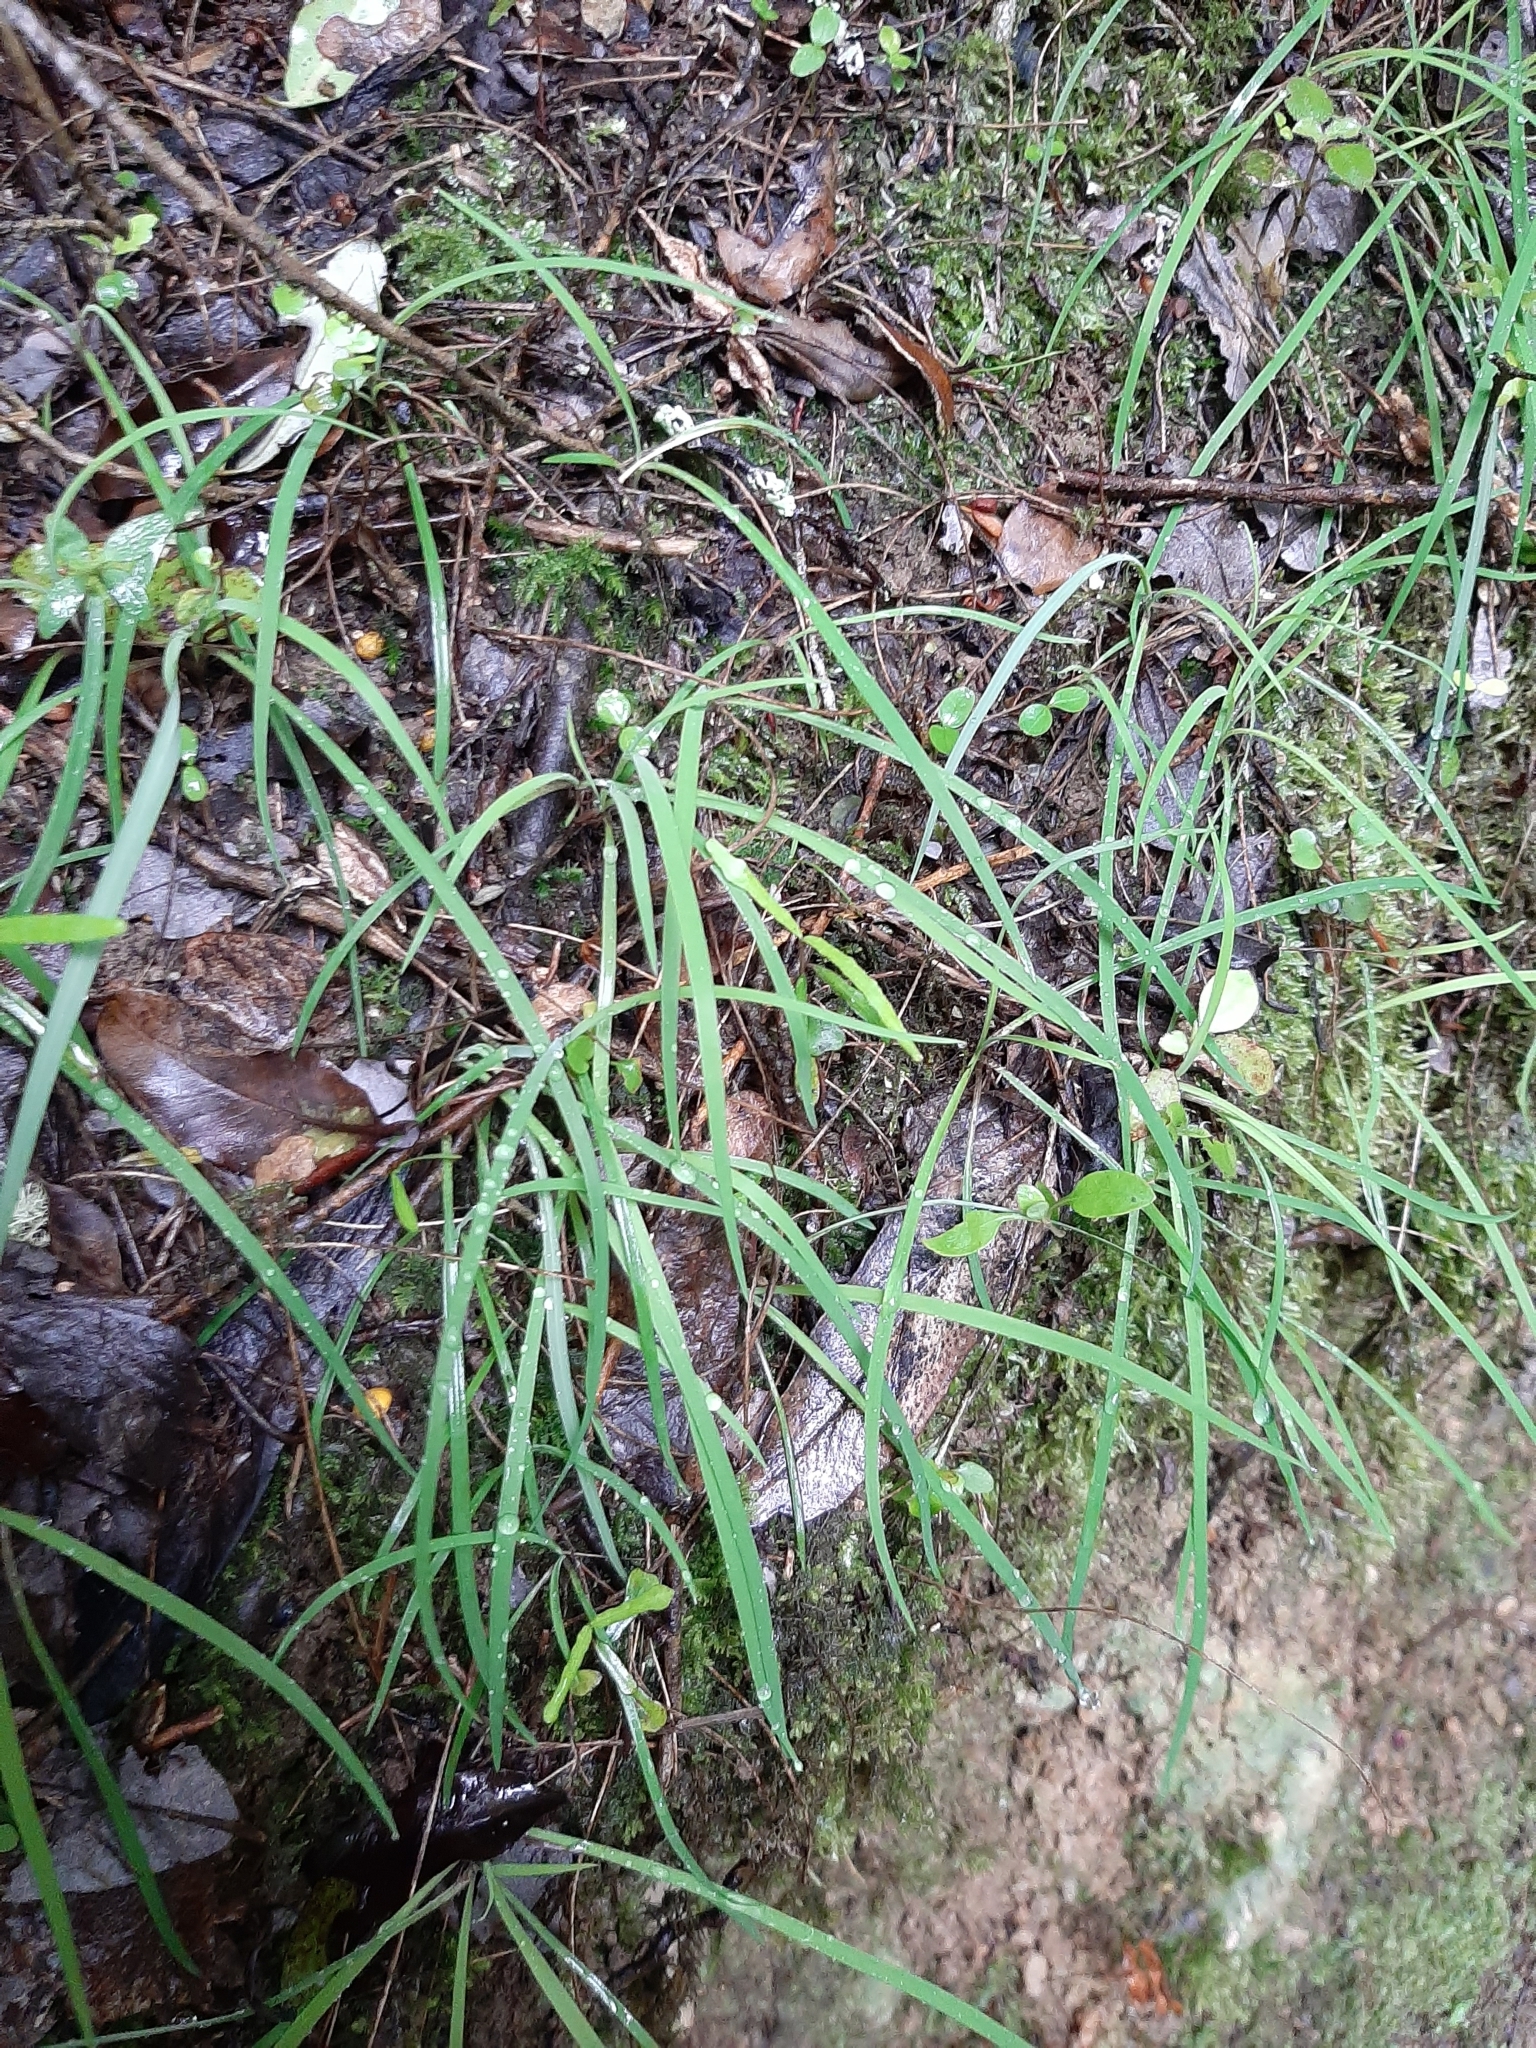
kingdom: Plantae
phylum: Tracheophyta
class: Liliopsida
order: Asparagales
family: Asparagaceae
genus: Arthropodium
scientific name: Arthropodium candidum
